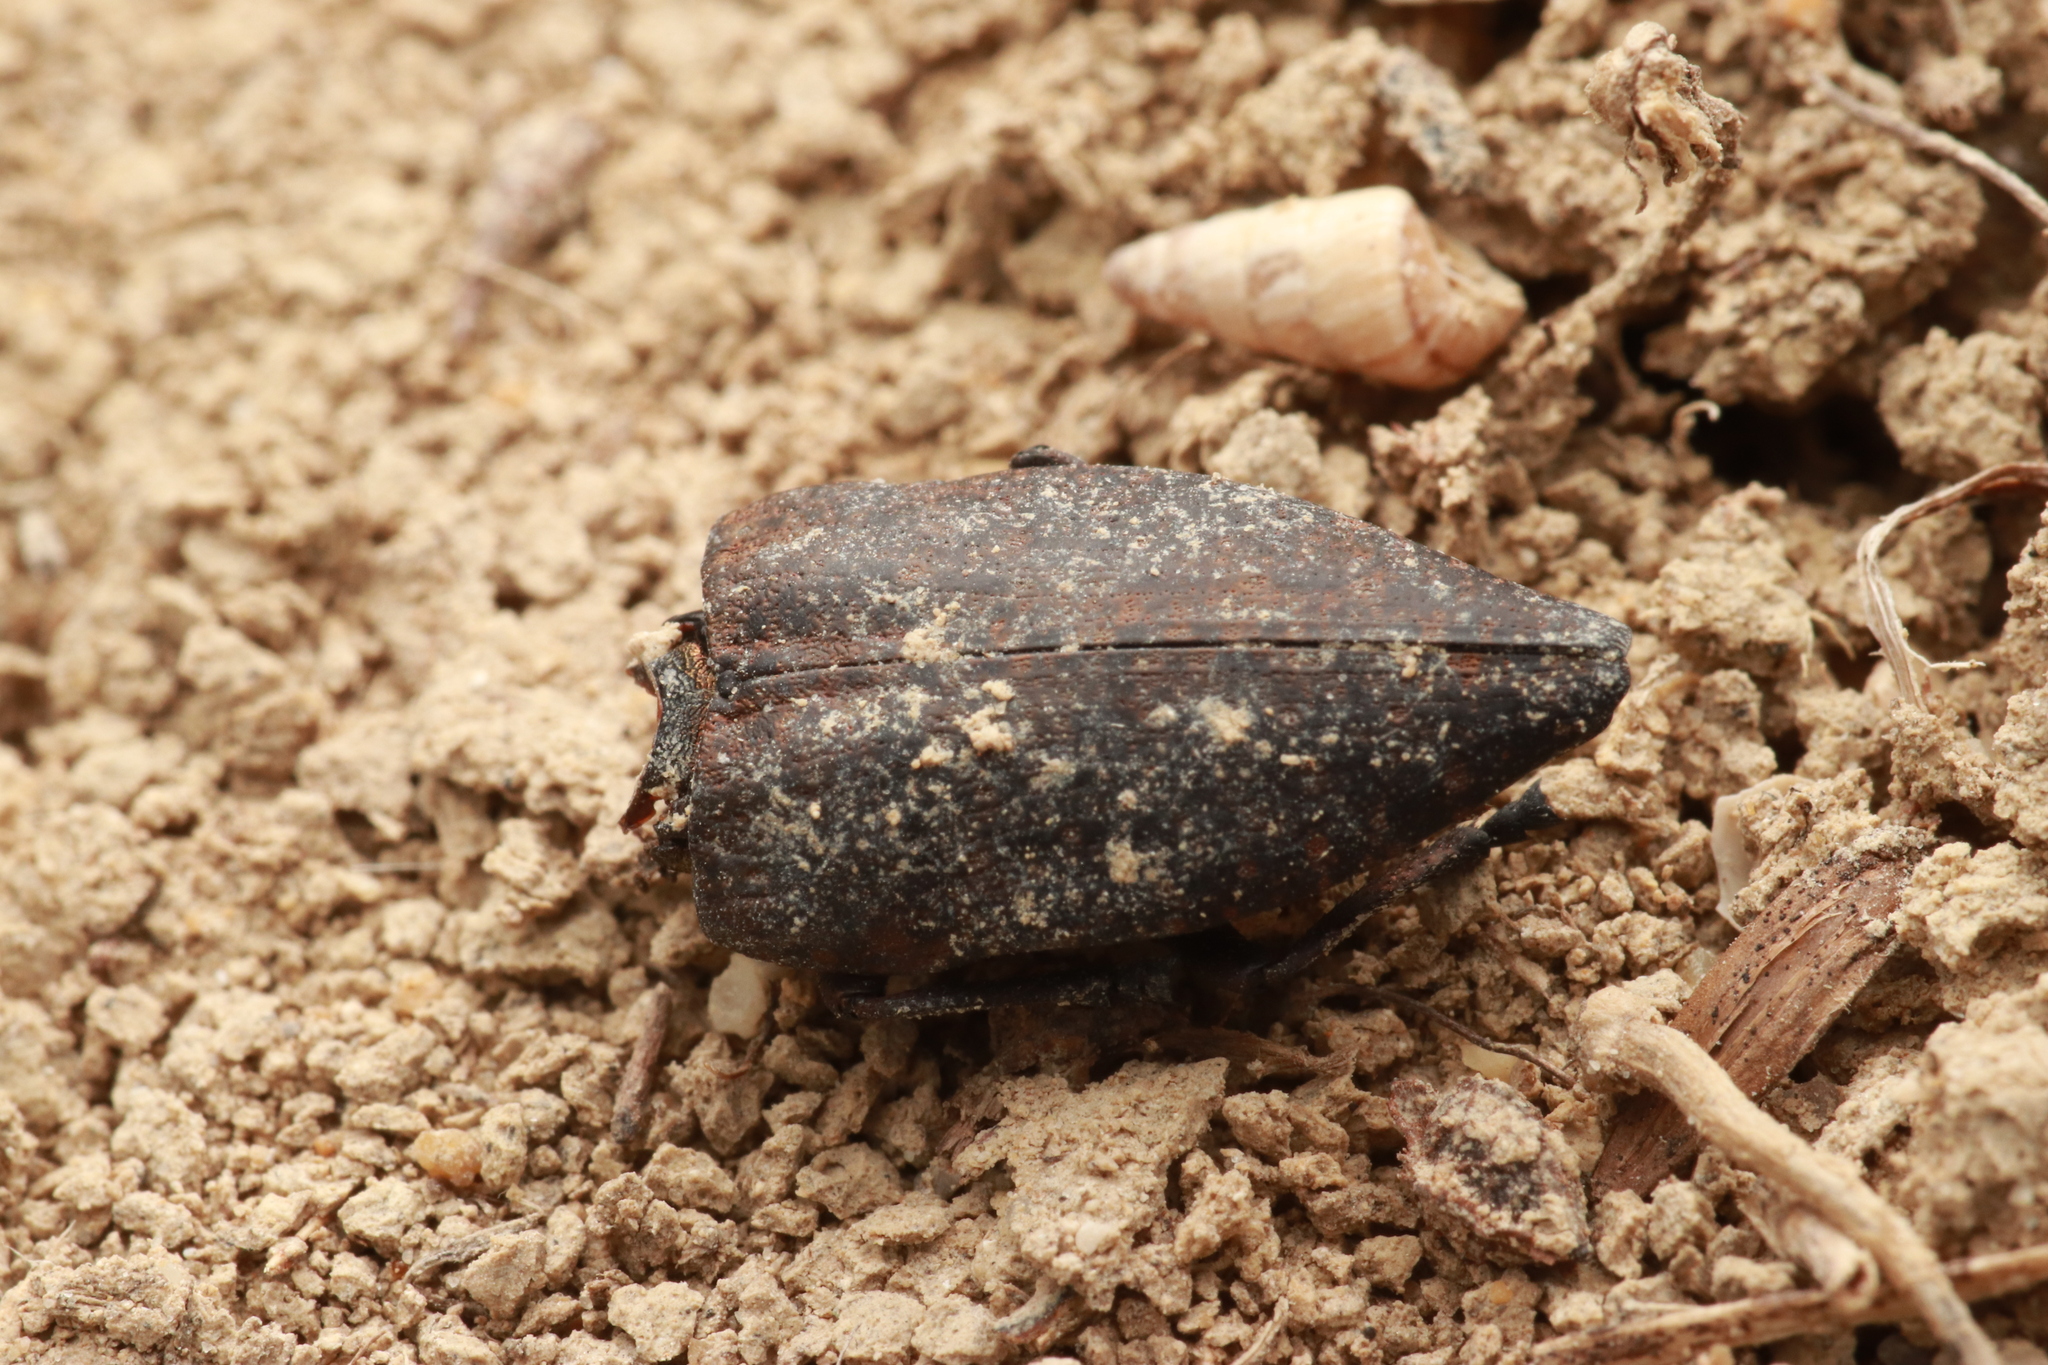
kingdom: Animalia
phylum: Arthropoda
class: Insecta
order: Coleoptera
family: Buprestidae
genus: Capnodis
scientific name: Capnodis tenebricosa
